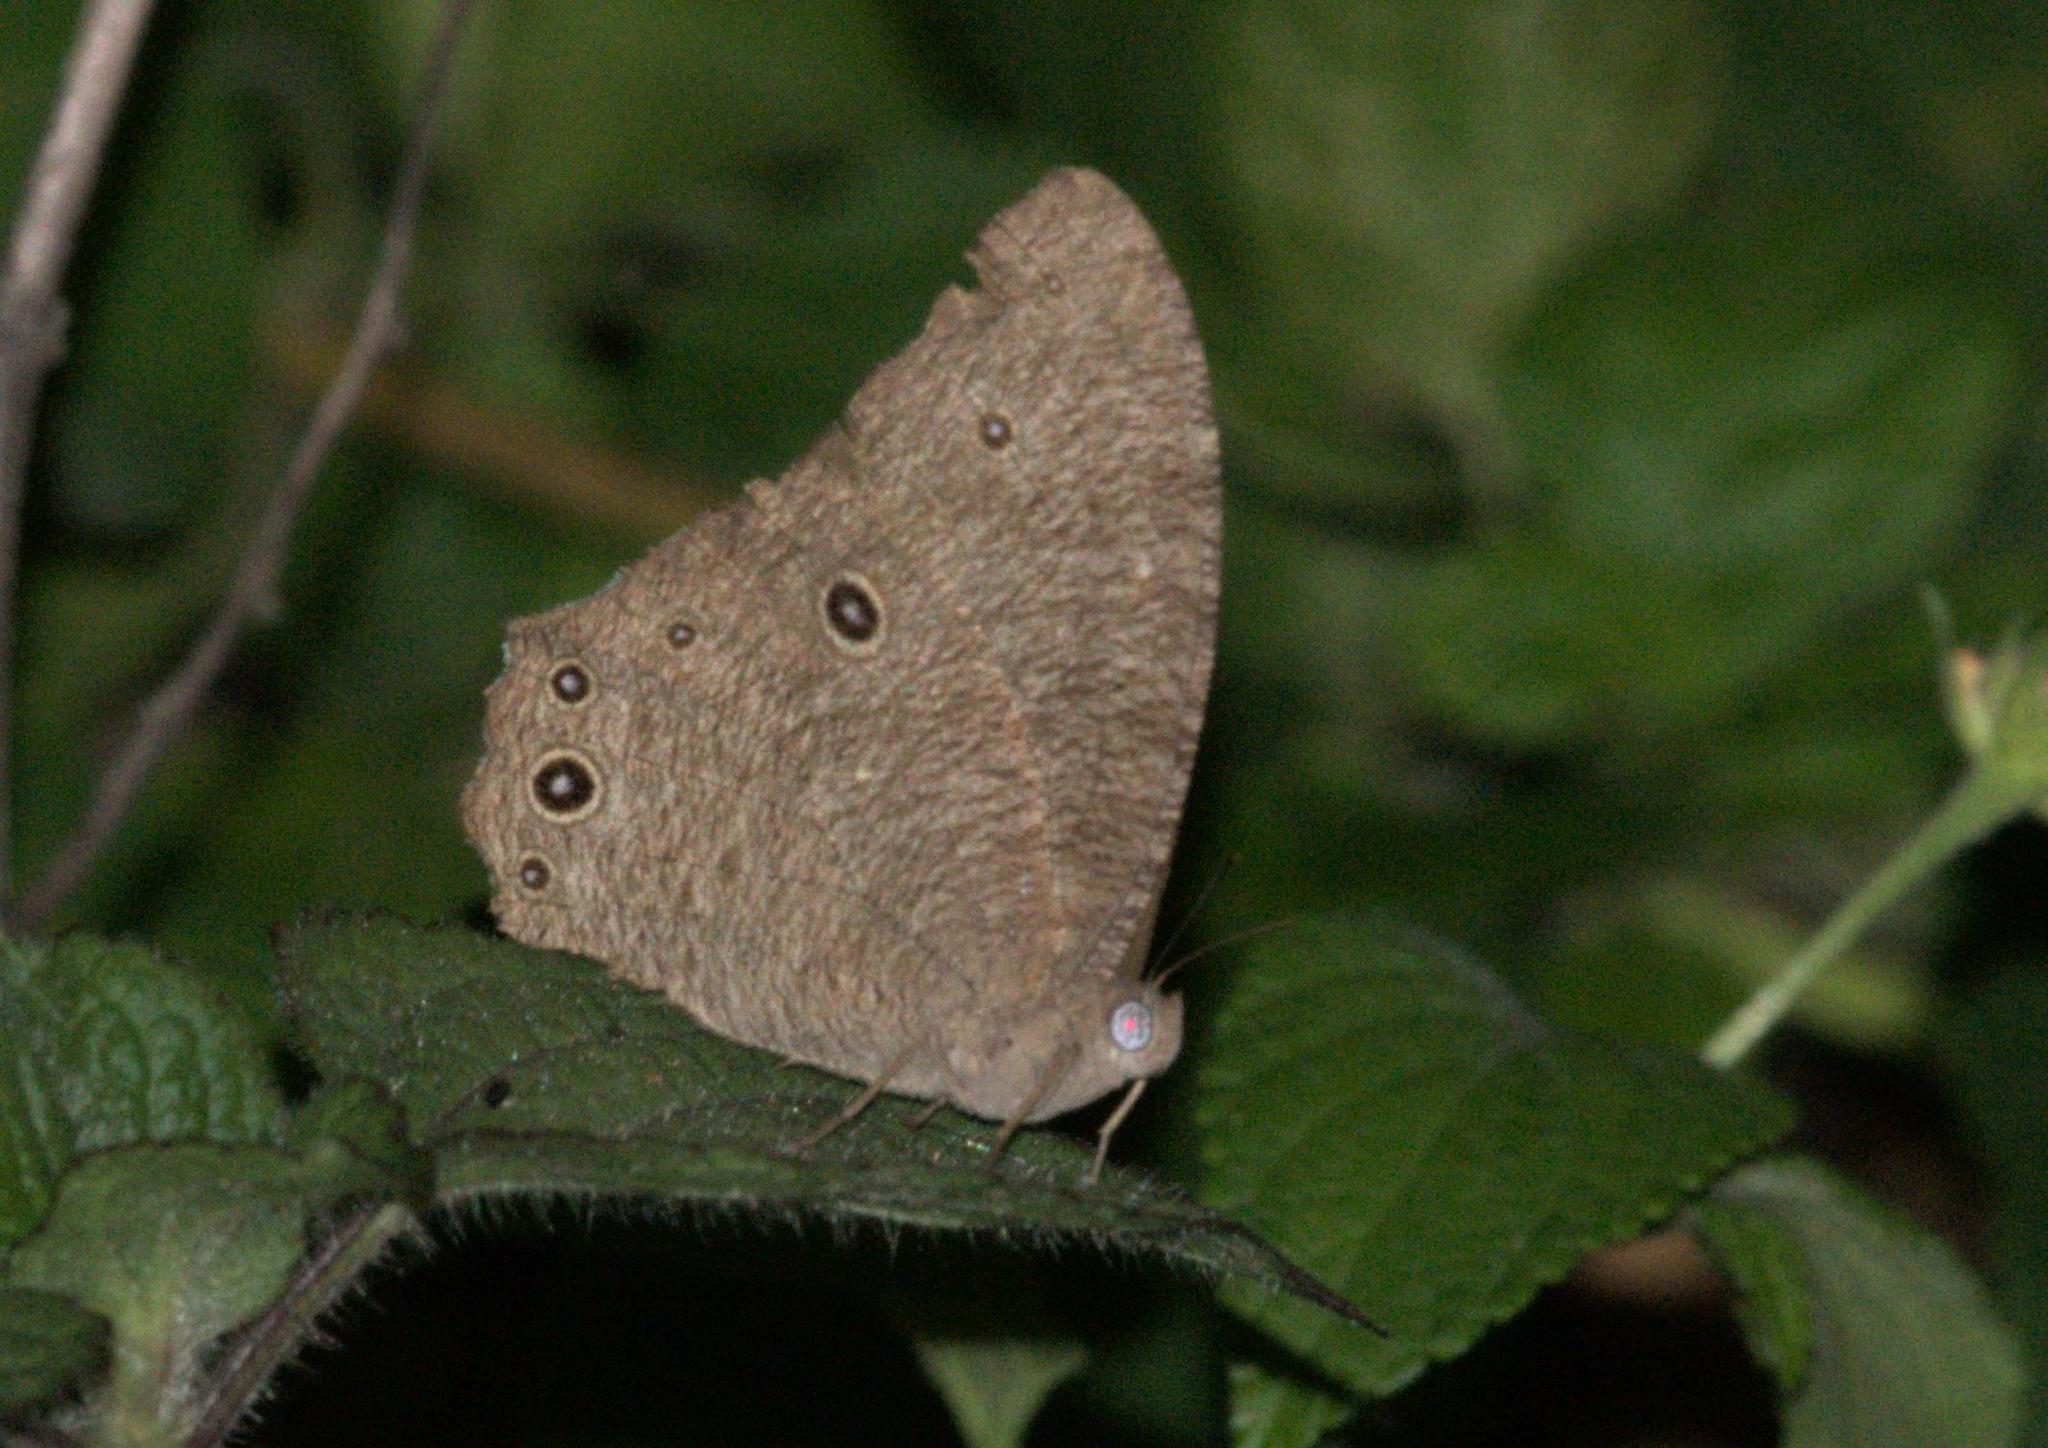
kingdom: Animalia
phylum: Arthropoda
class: Insecta
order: Lepidoptera
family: Nymphalidae
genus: Melanitis
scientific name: Melanitis leda
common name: Twilight brown
